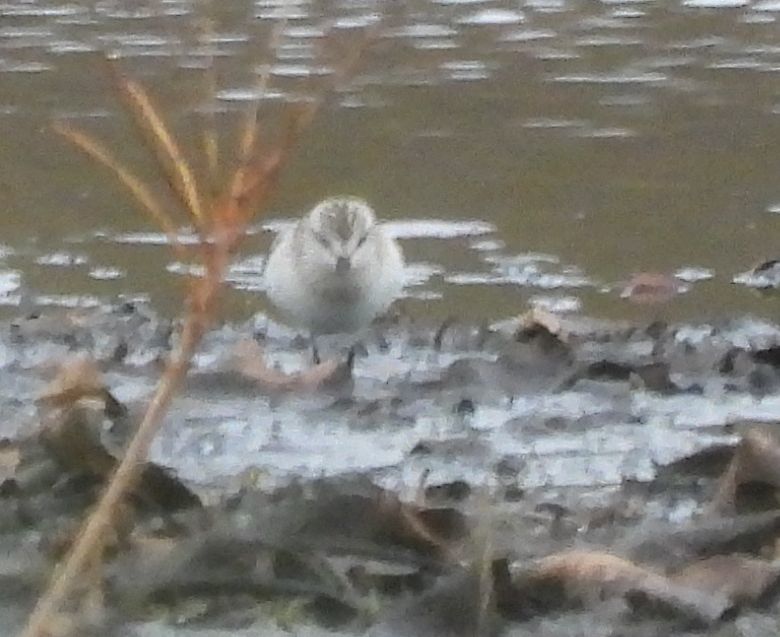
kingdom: Animalia
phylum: Chordata
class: Aves
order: Charadriiformes
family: Scolopacidae
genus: Calidris
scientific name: Calidris pusilla
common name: Semipalmated sandpiper
